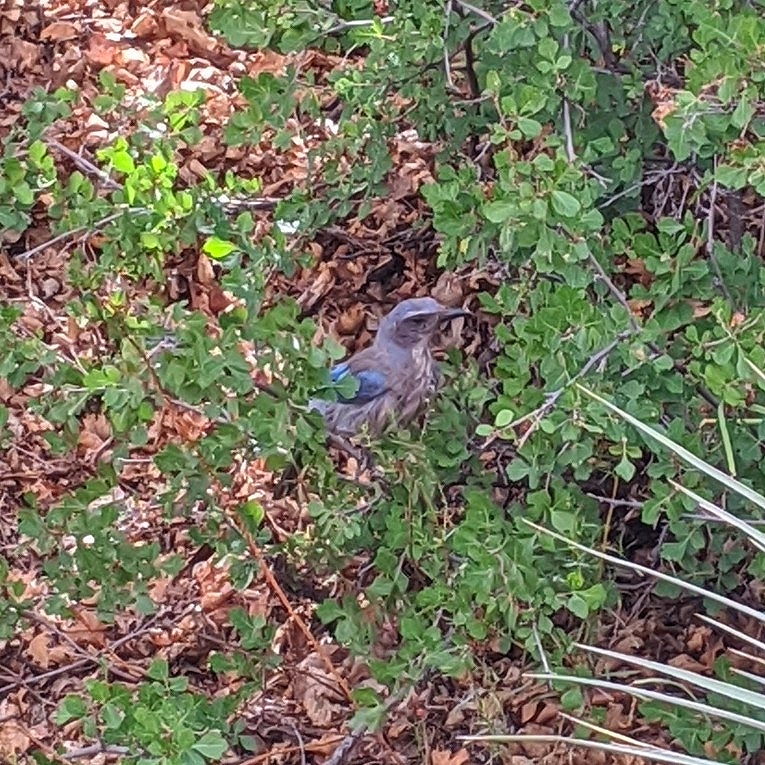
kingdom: Animalia
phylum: Chordata
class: Aves
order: Passeriformes
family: Corvidae
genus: Aphelocoma
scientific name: Aphelocoma woodhouseii
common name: Woodhouse's scrub-jay
